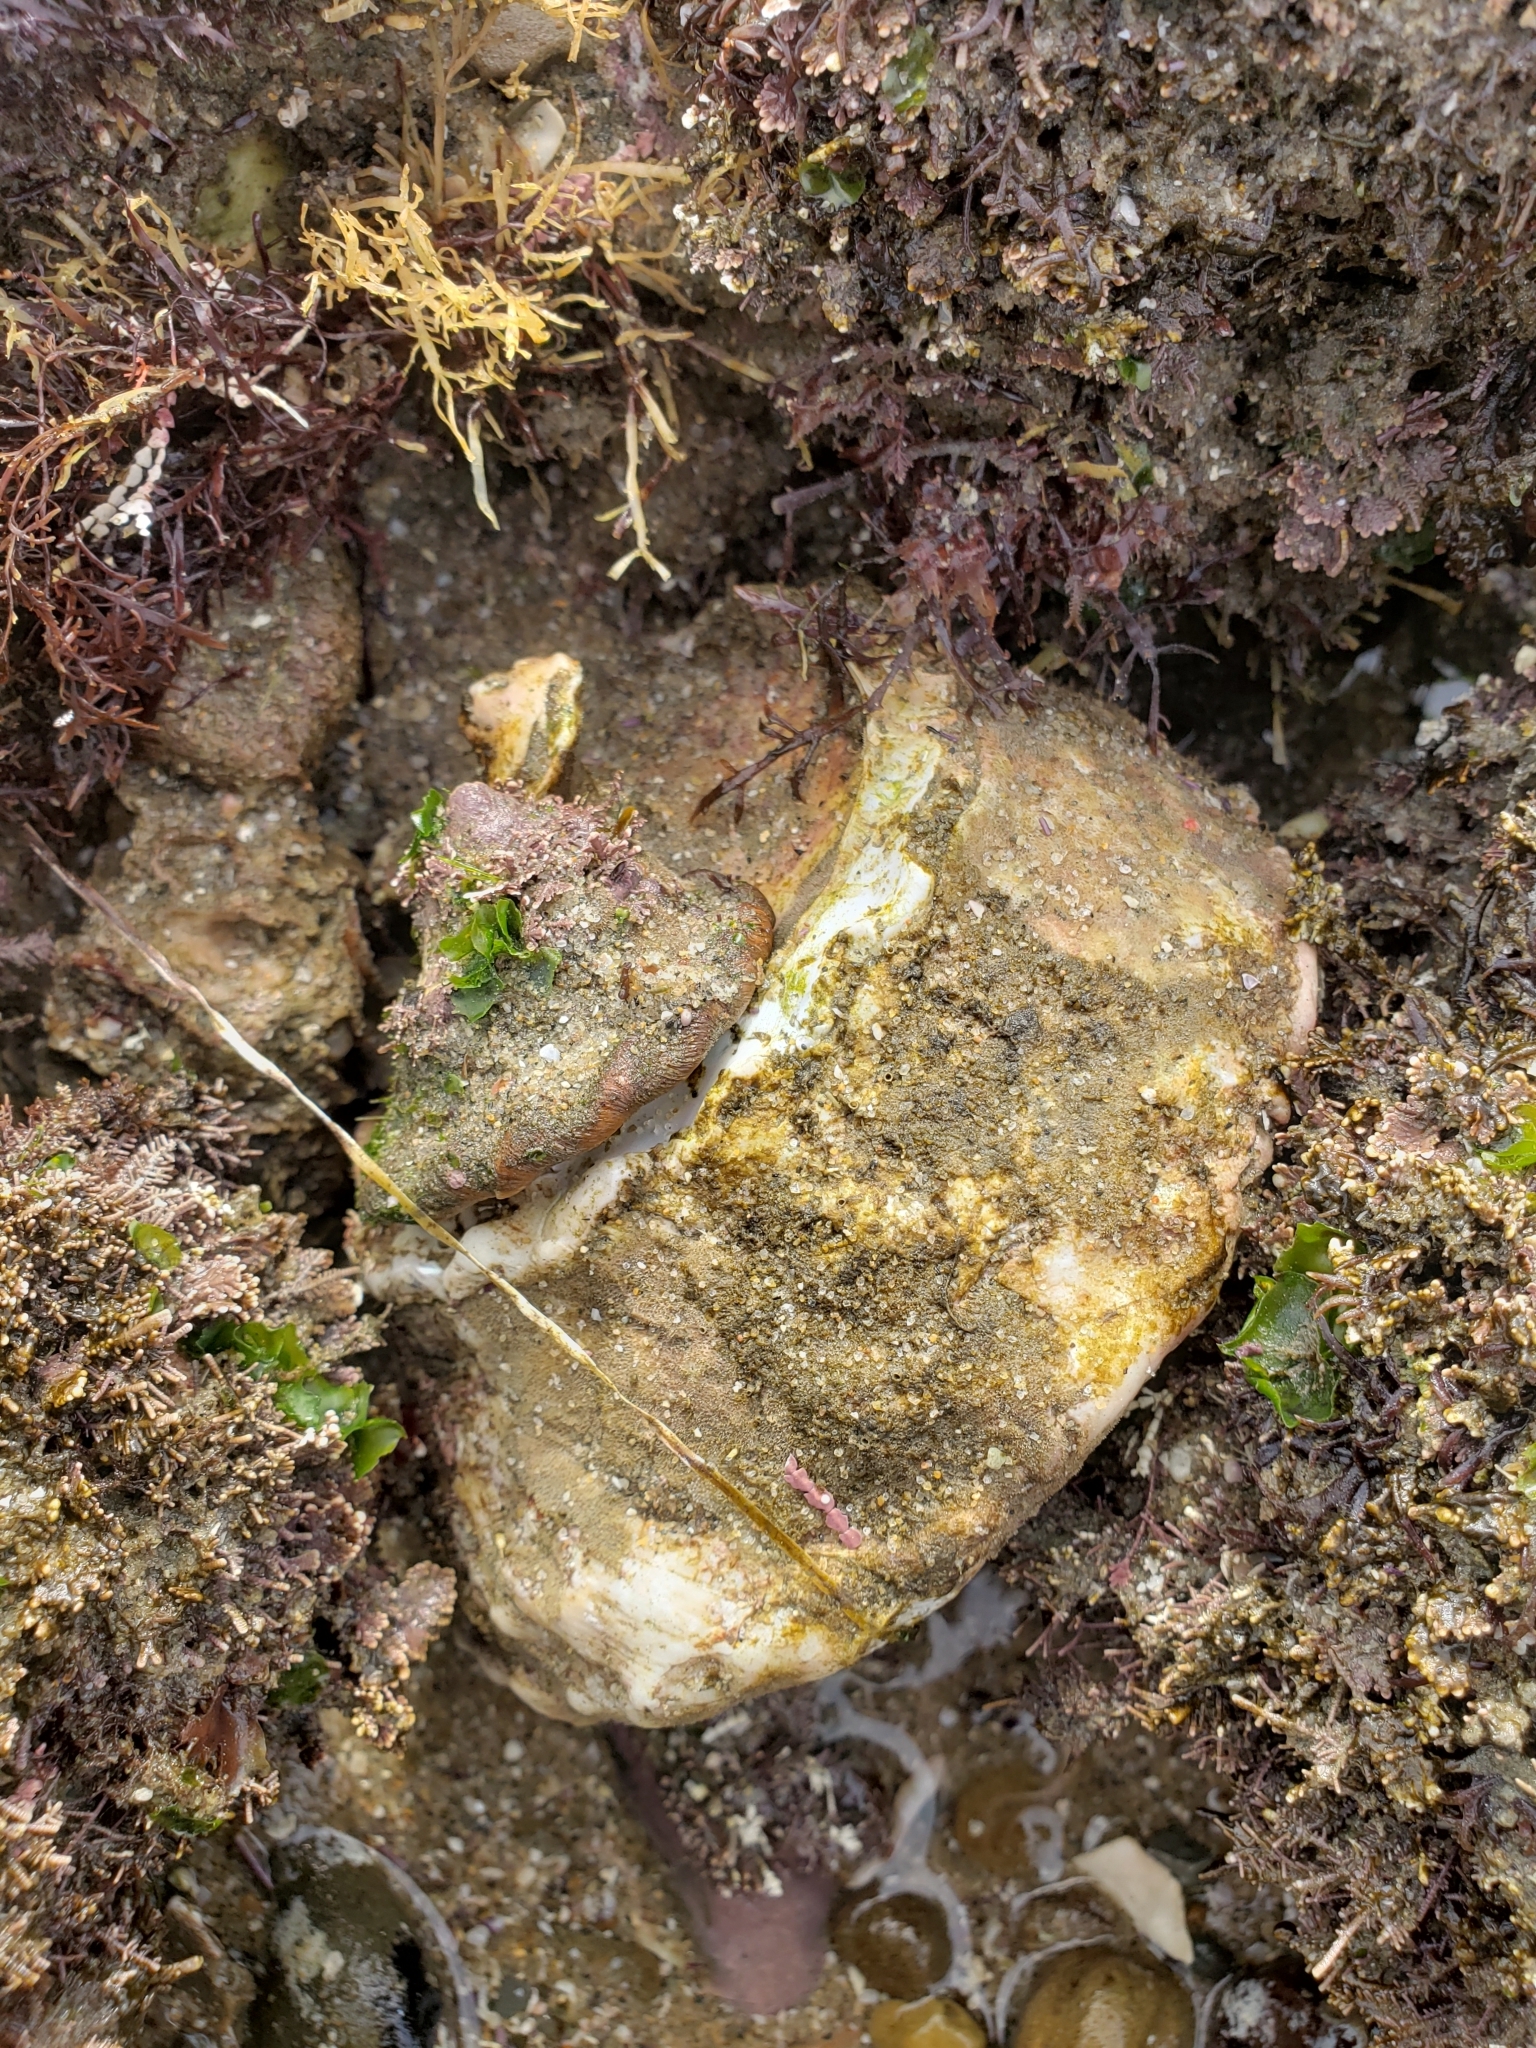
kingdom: Animalia
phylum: Mollusca
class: Gastropoda
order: Trochida
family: Turbinidae
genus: Megastraea
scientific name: Megastraea undosa
